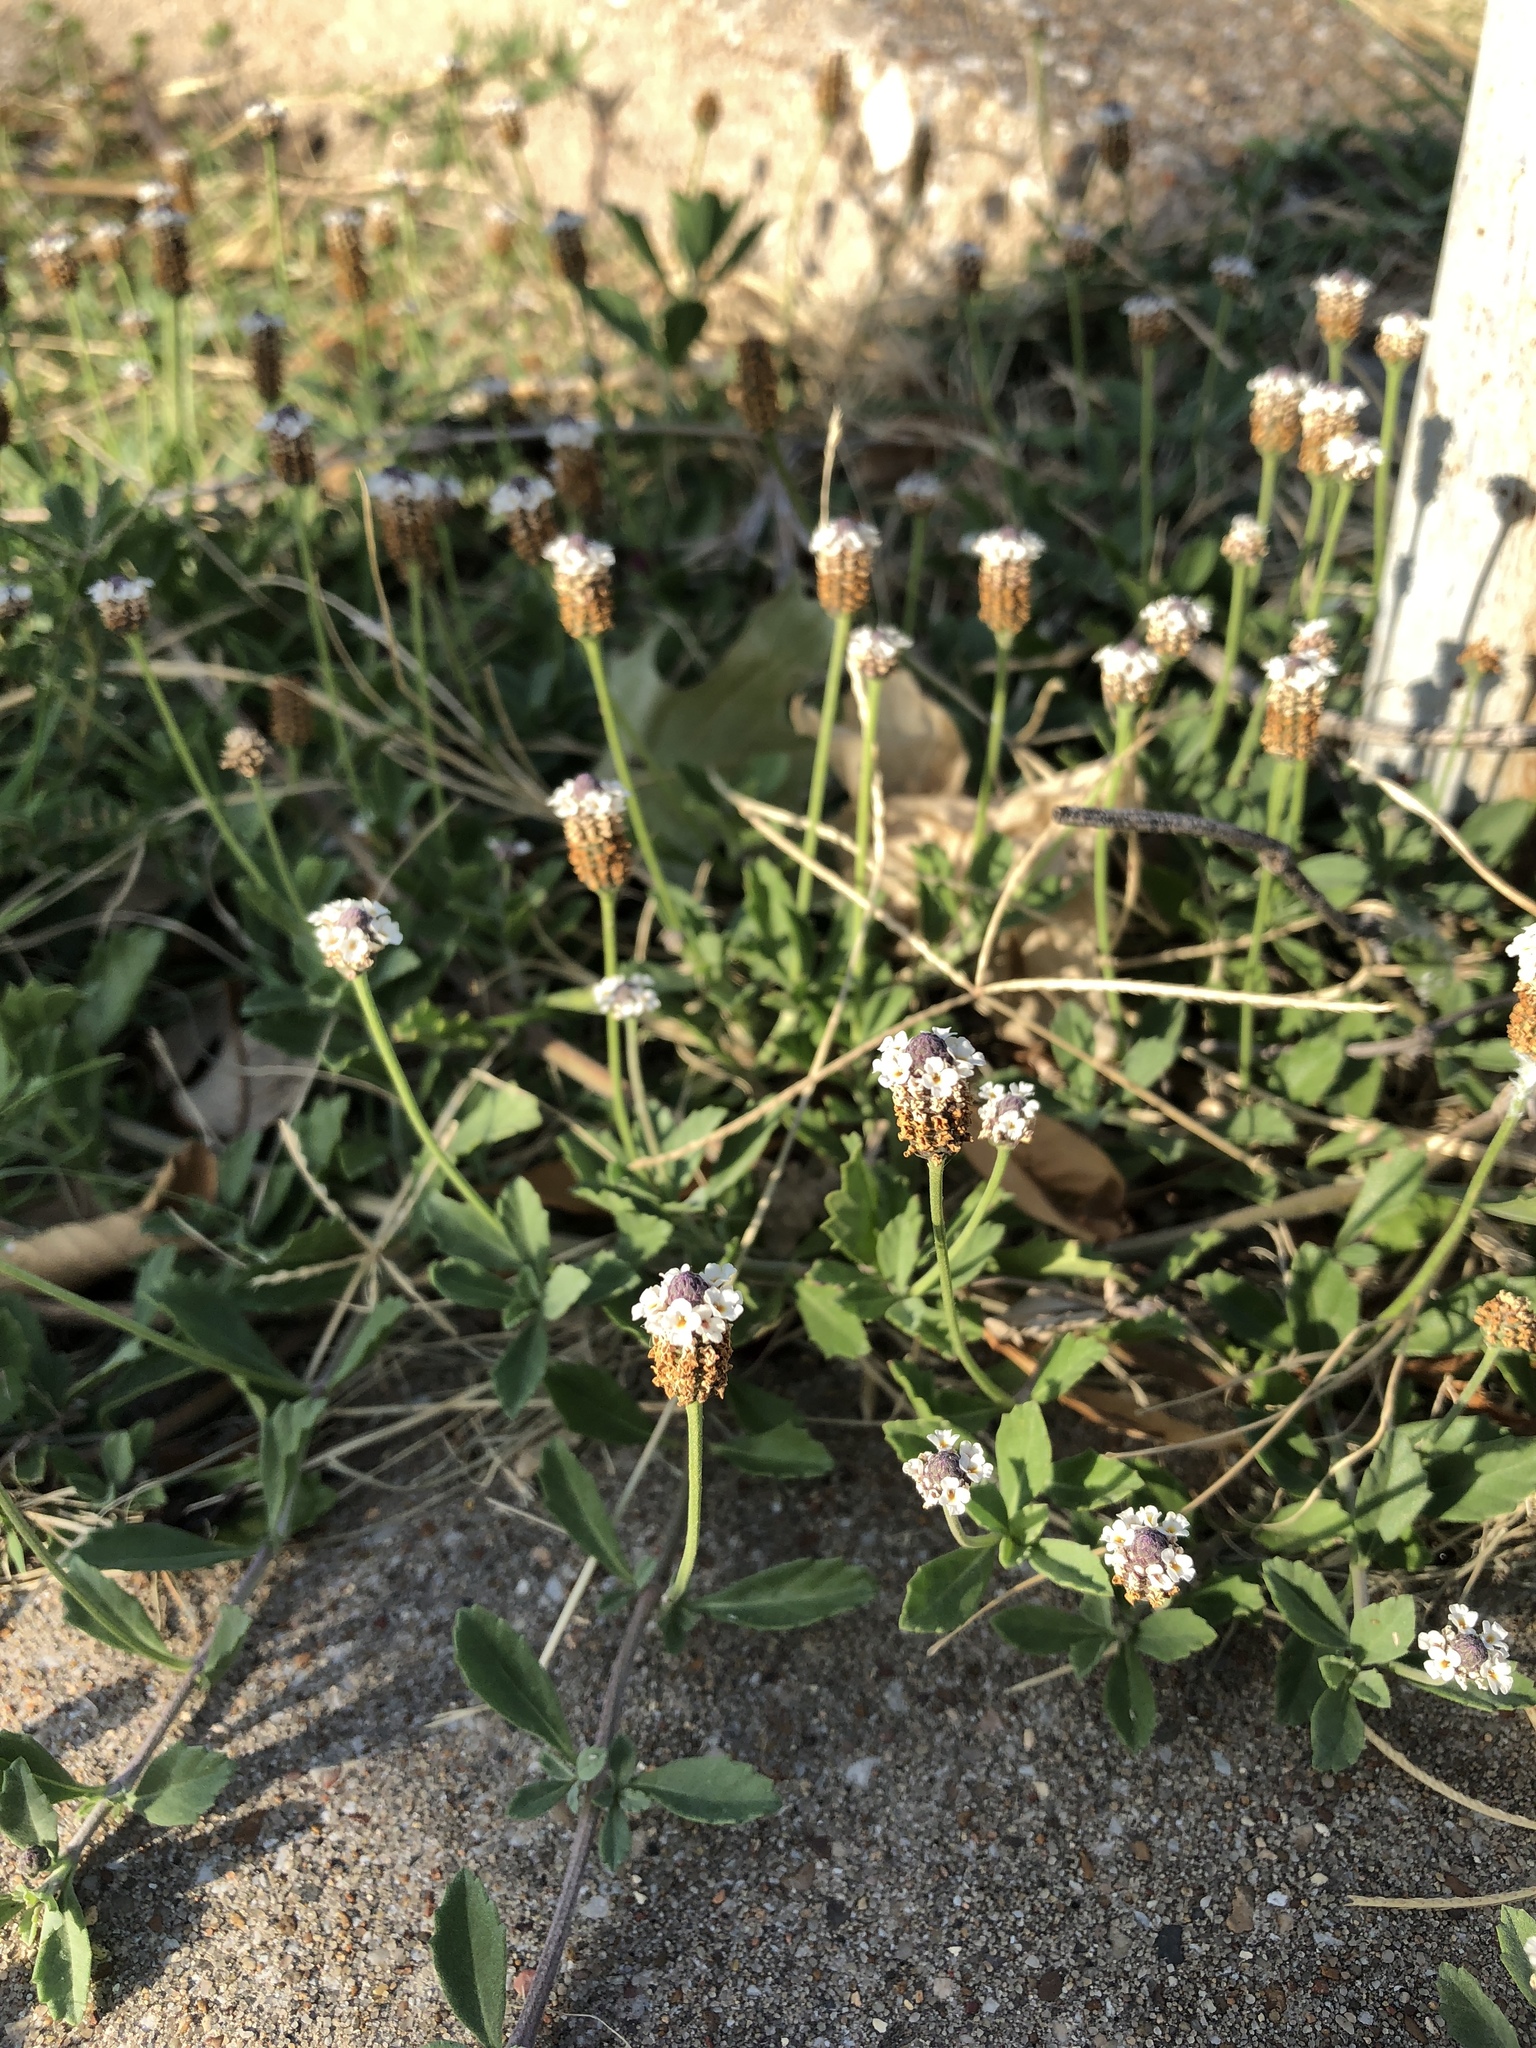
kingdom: Plantae
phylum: Tracheophyta
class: Magnoliopsida
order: Lamiales
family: Verbenaceae
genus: Phyla
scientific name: Phyla nodiflora
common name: Frogfruit
